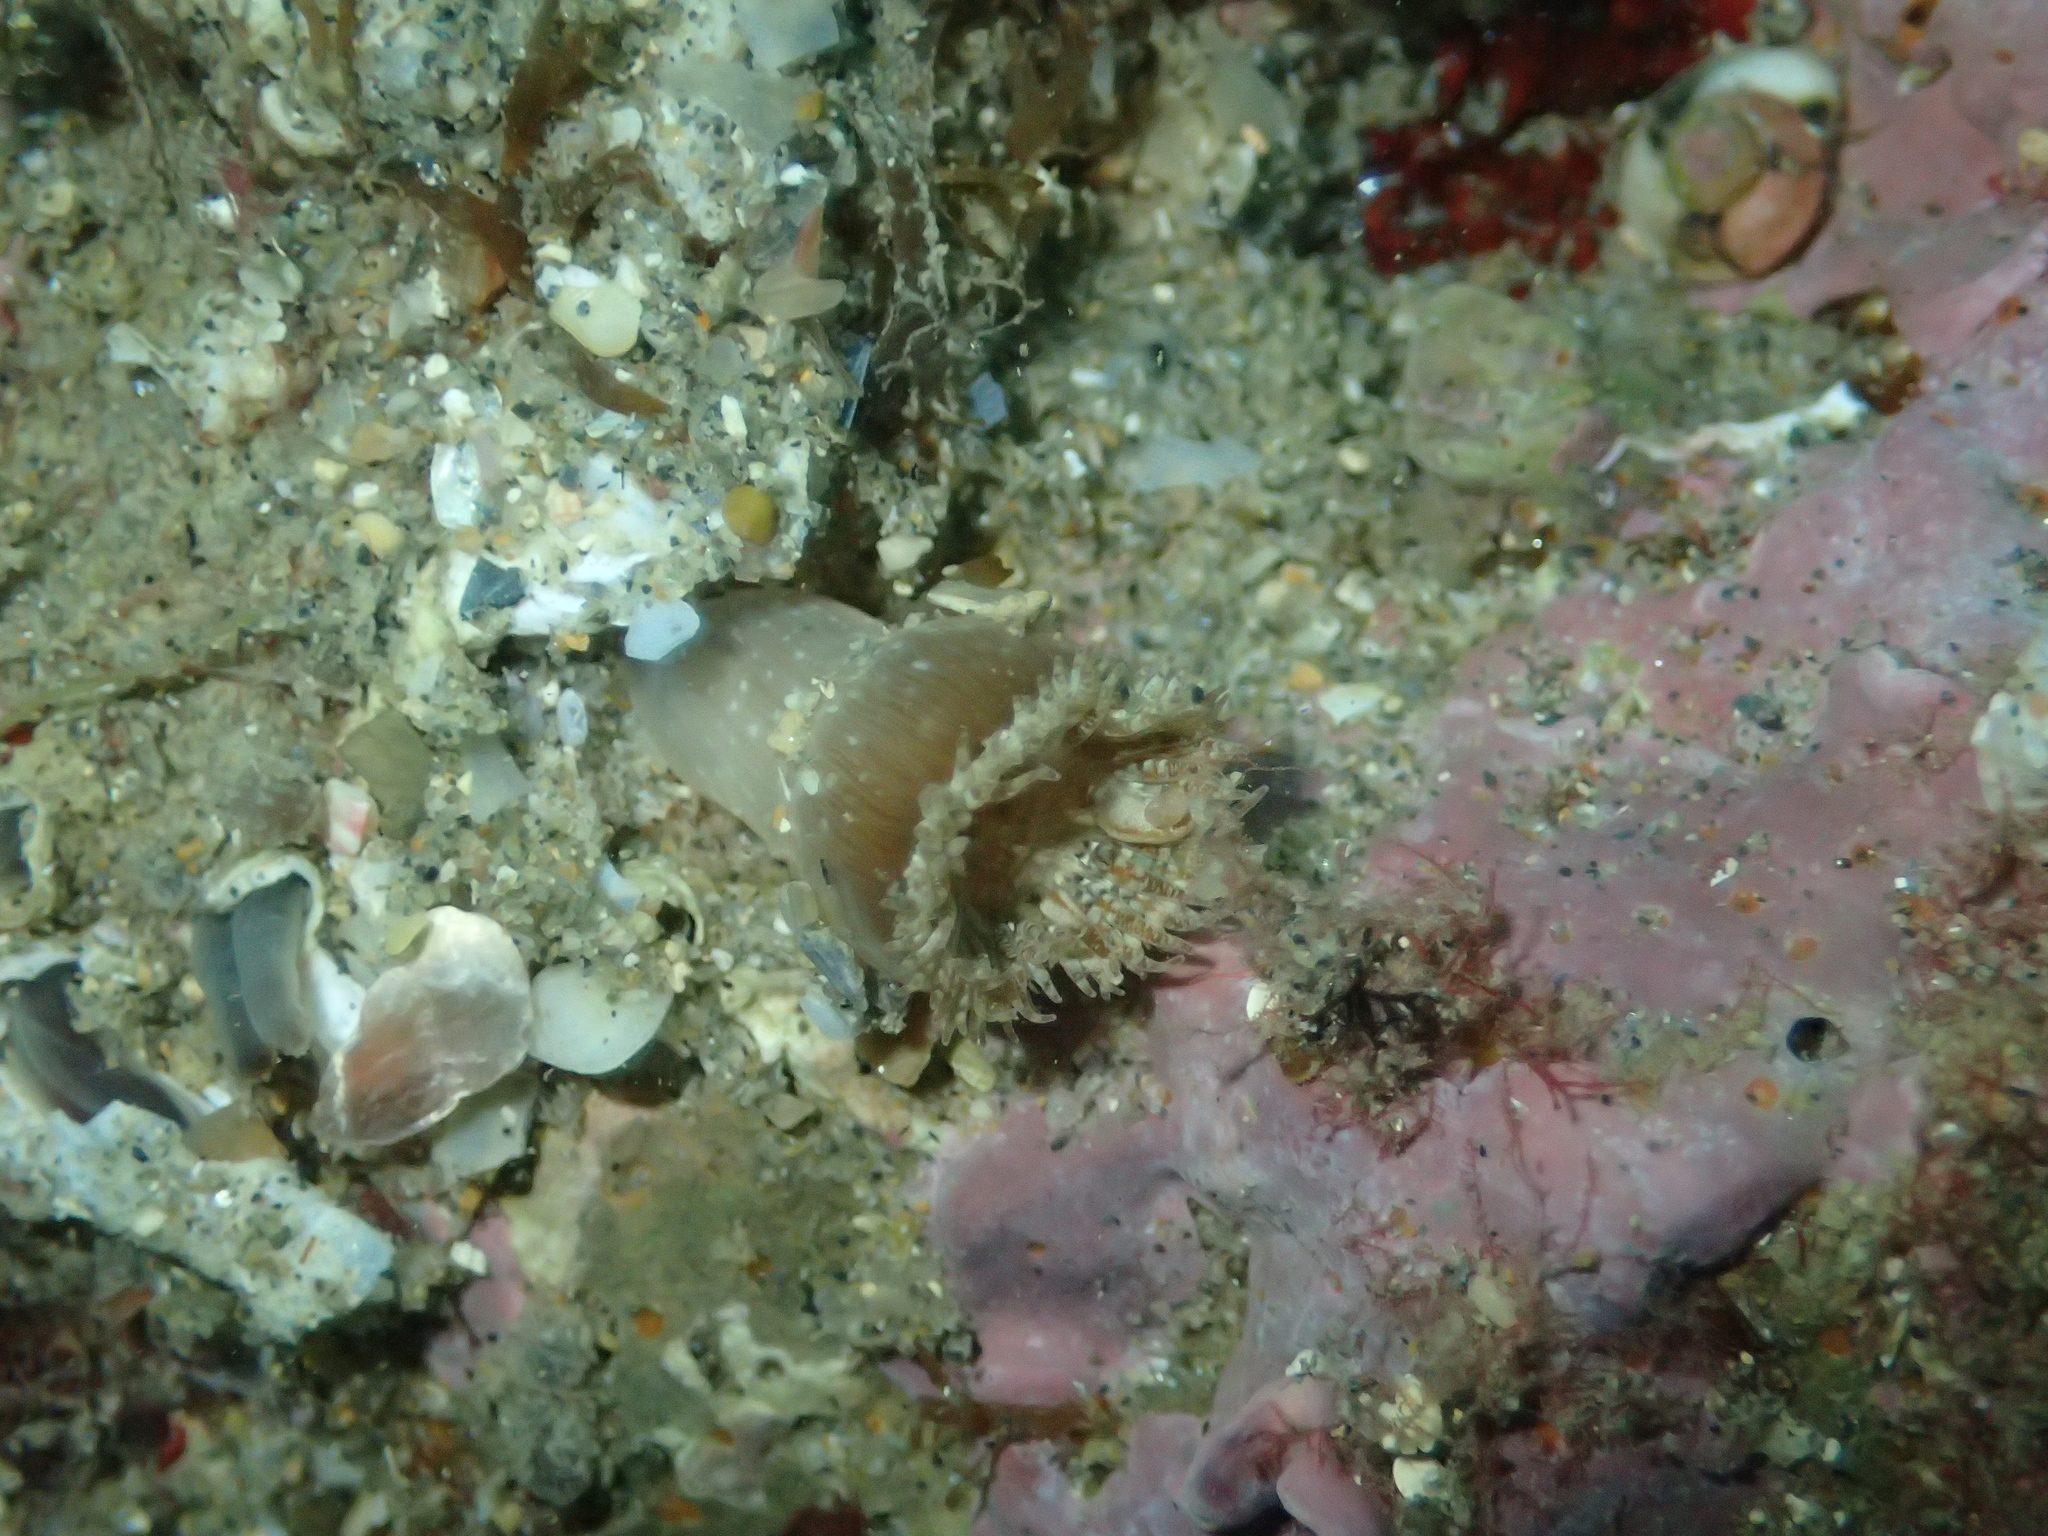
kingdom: Animalia
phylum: Cnidaria
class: Anthozoa
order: Actiniaria
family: Sagartiidae
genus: Cereus
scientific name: Cereus pedunculatus
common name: Daisy anemone
